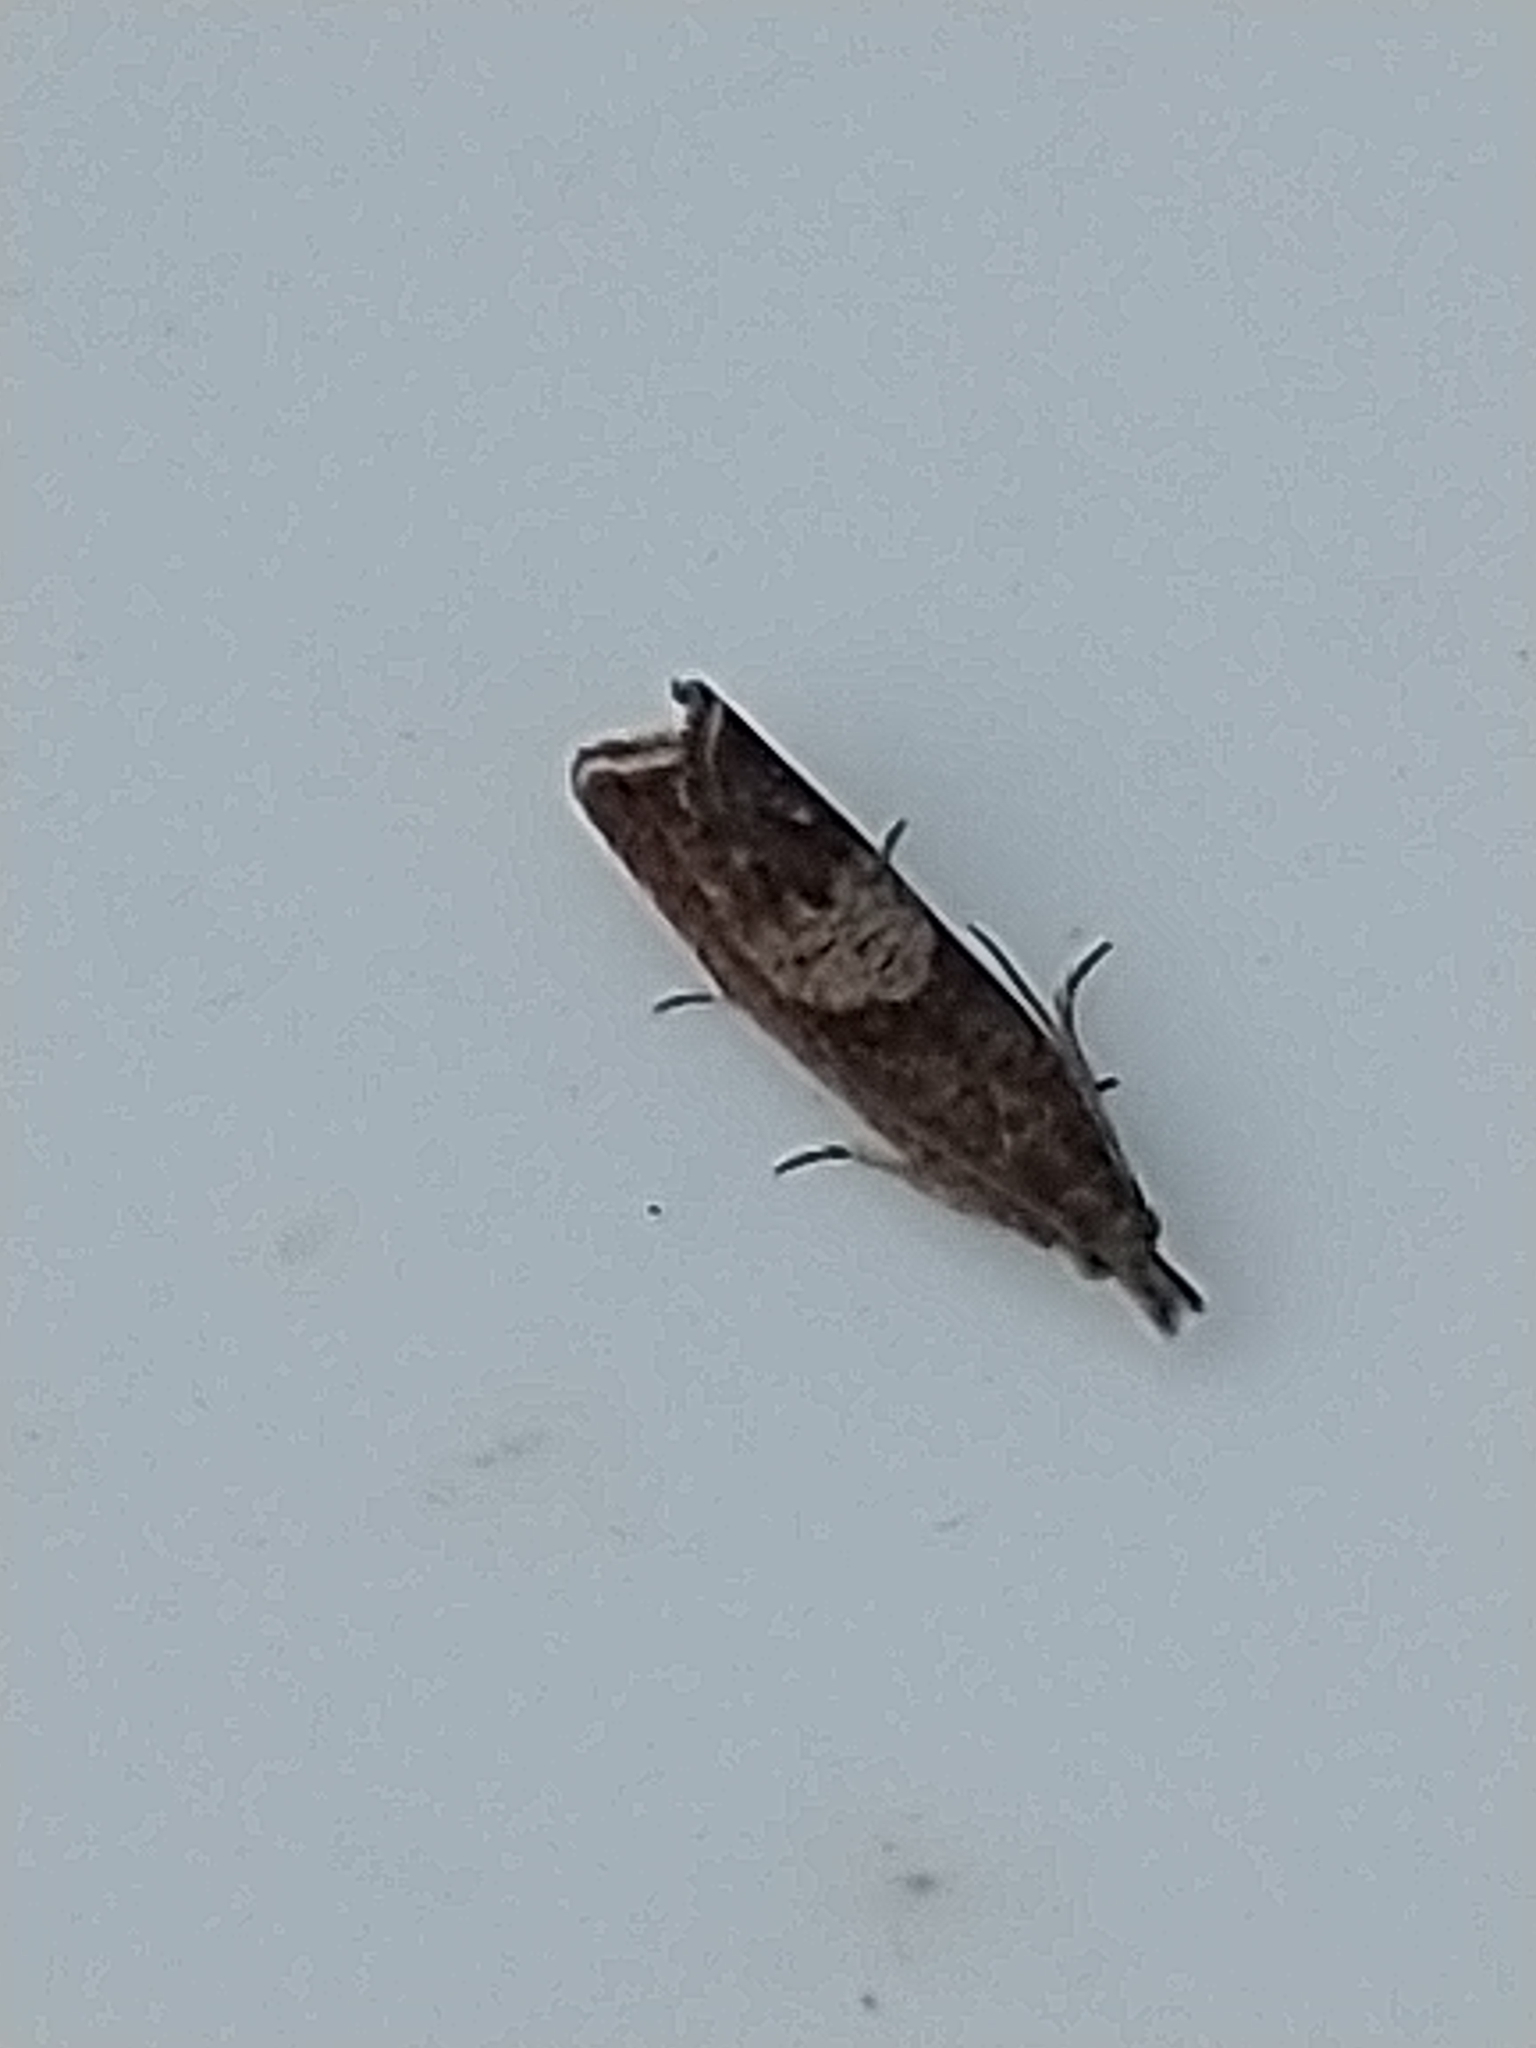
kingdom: Animalia
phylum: Arthropoda
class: Insecta
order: Lepidoptera
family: Tortricidae
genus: Dichrorampha
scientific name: Dichrorampha acuminatana
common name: Sharp-winged drill
